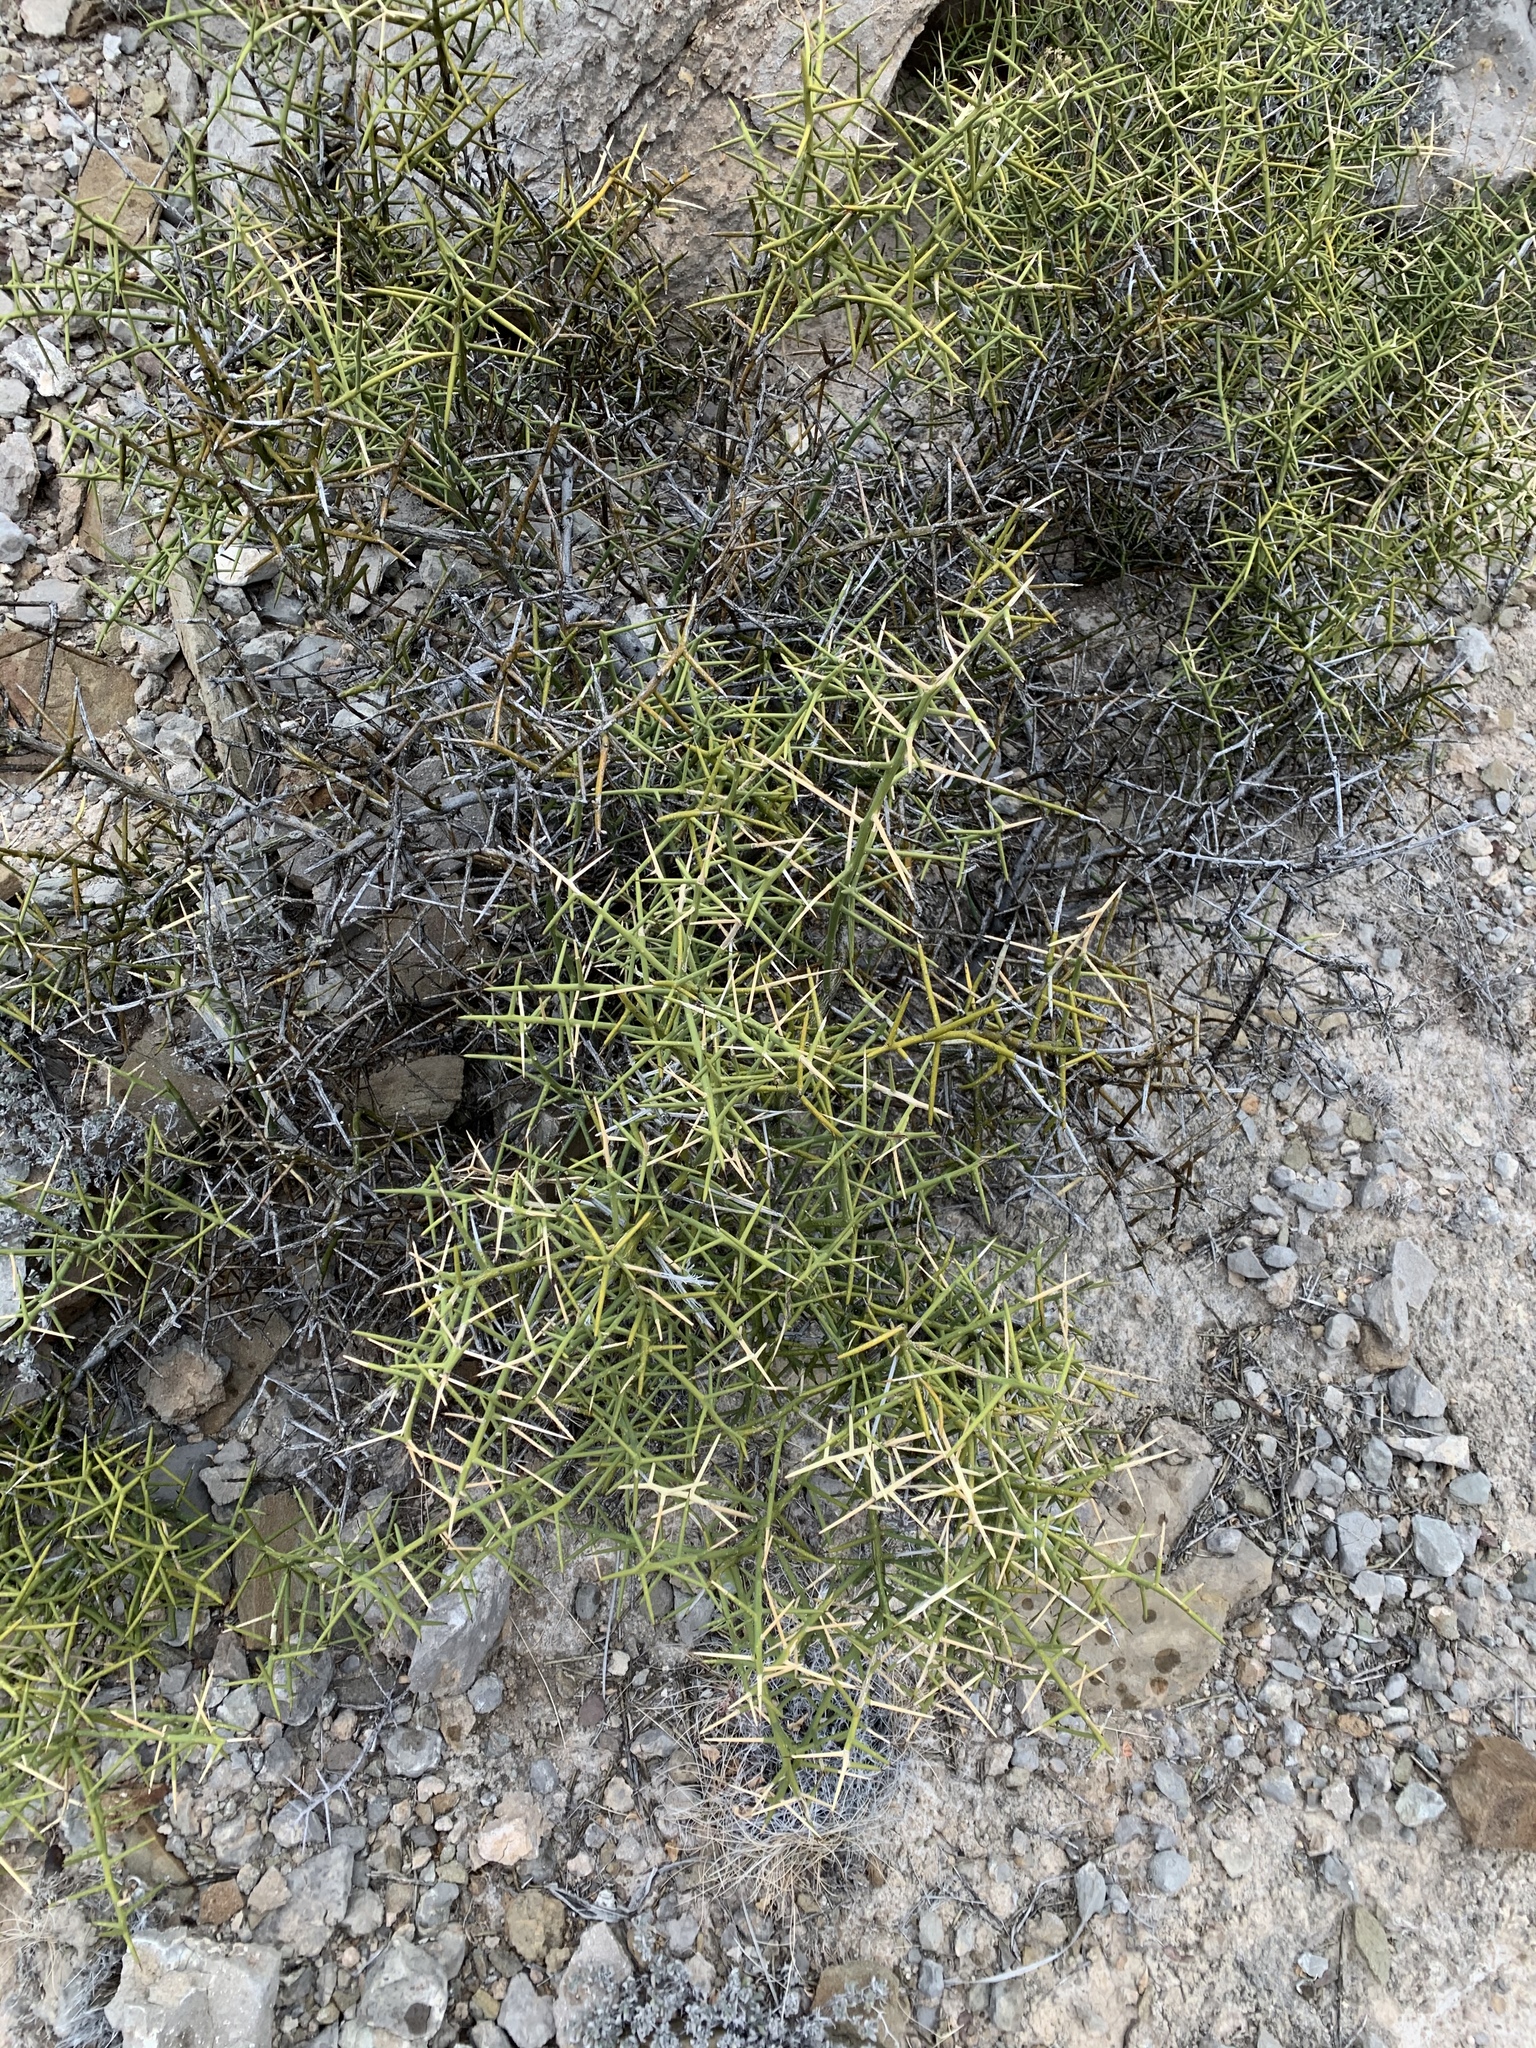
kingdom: Plantae
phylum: Tracheophyta
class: Magnoliopsida
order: Brassicales
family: Koeberliniaceae
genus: Koeberlinia
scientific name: Koeberlinia spinosa
